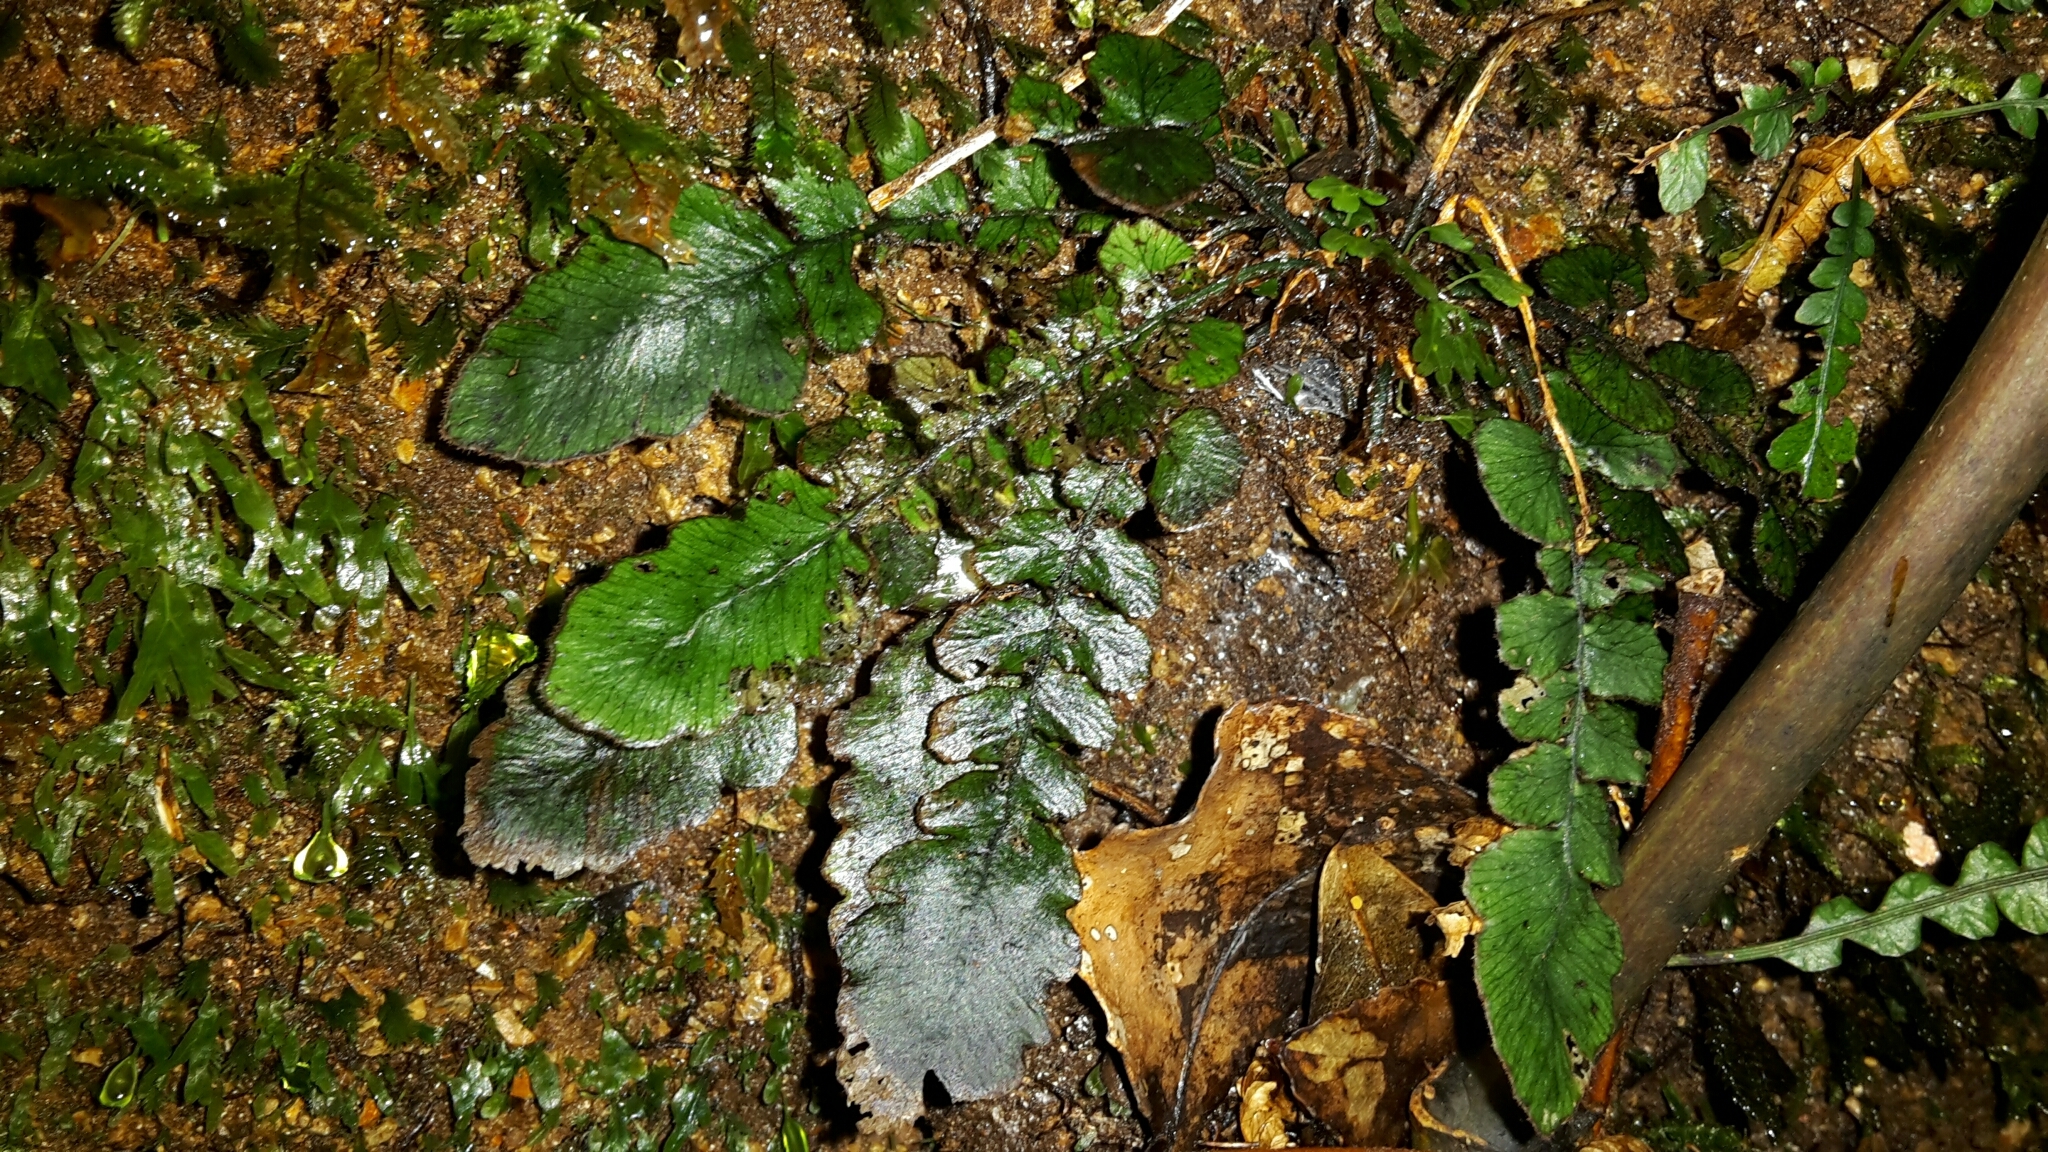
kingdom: Plantae
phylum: Tracheophyta
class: Polypodiopsida
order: Polypodiales
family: Blechnaceae
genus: Cranfillia
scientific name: Cranfillia nigra
